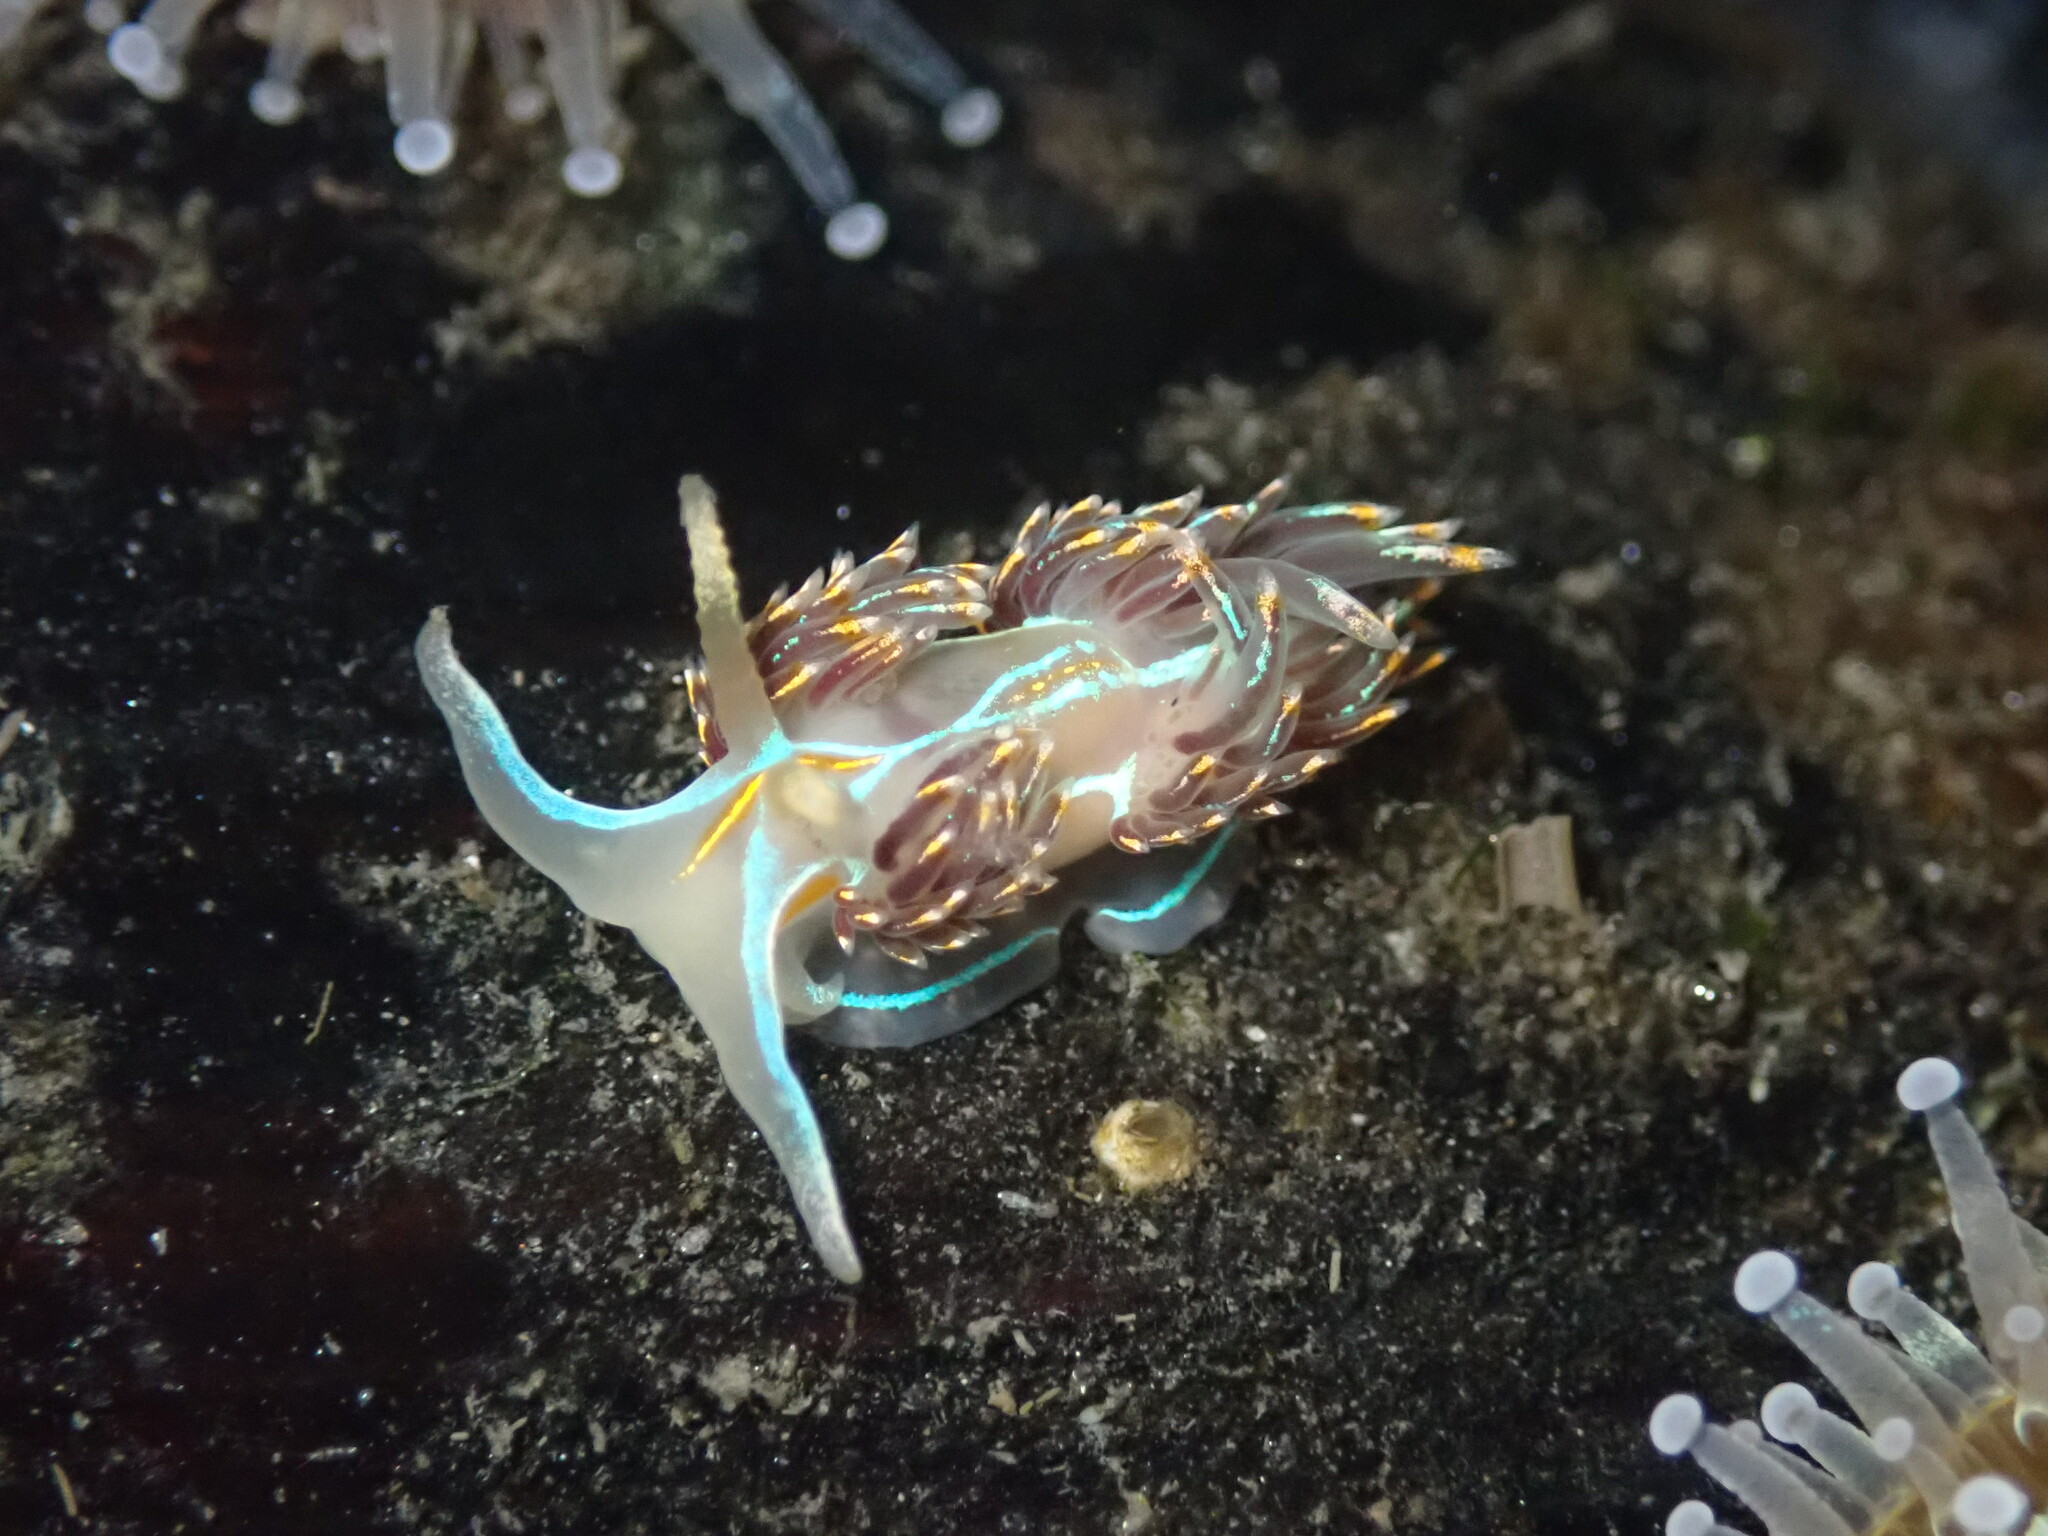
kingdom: Animalia
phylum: Mollusca
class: Gastropoda
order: Nudibranchia
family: Myrrhinidae
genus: Hermissenda
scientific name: Hermissenda opalescens
